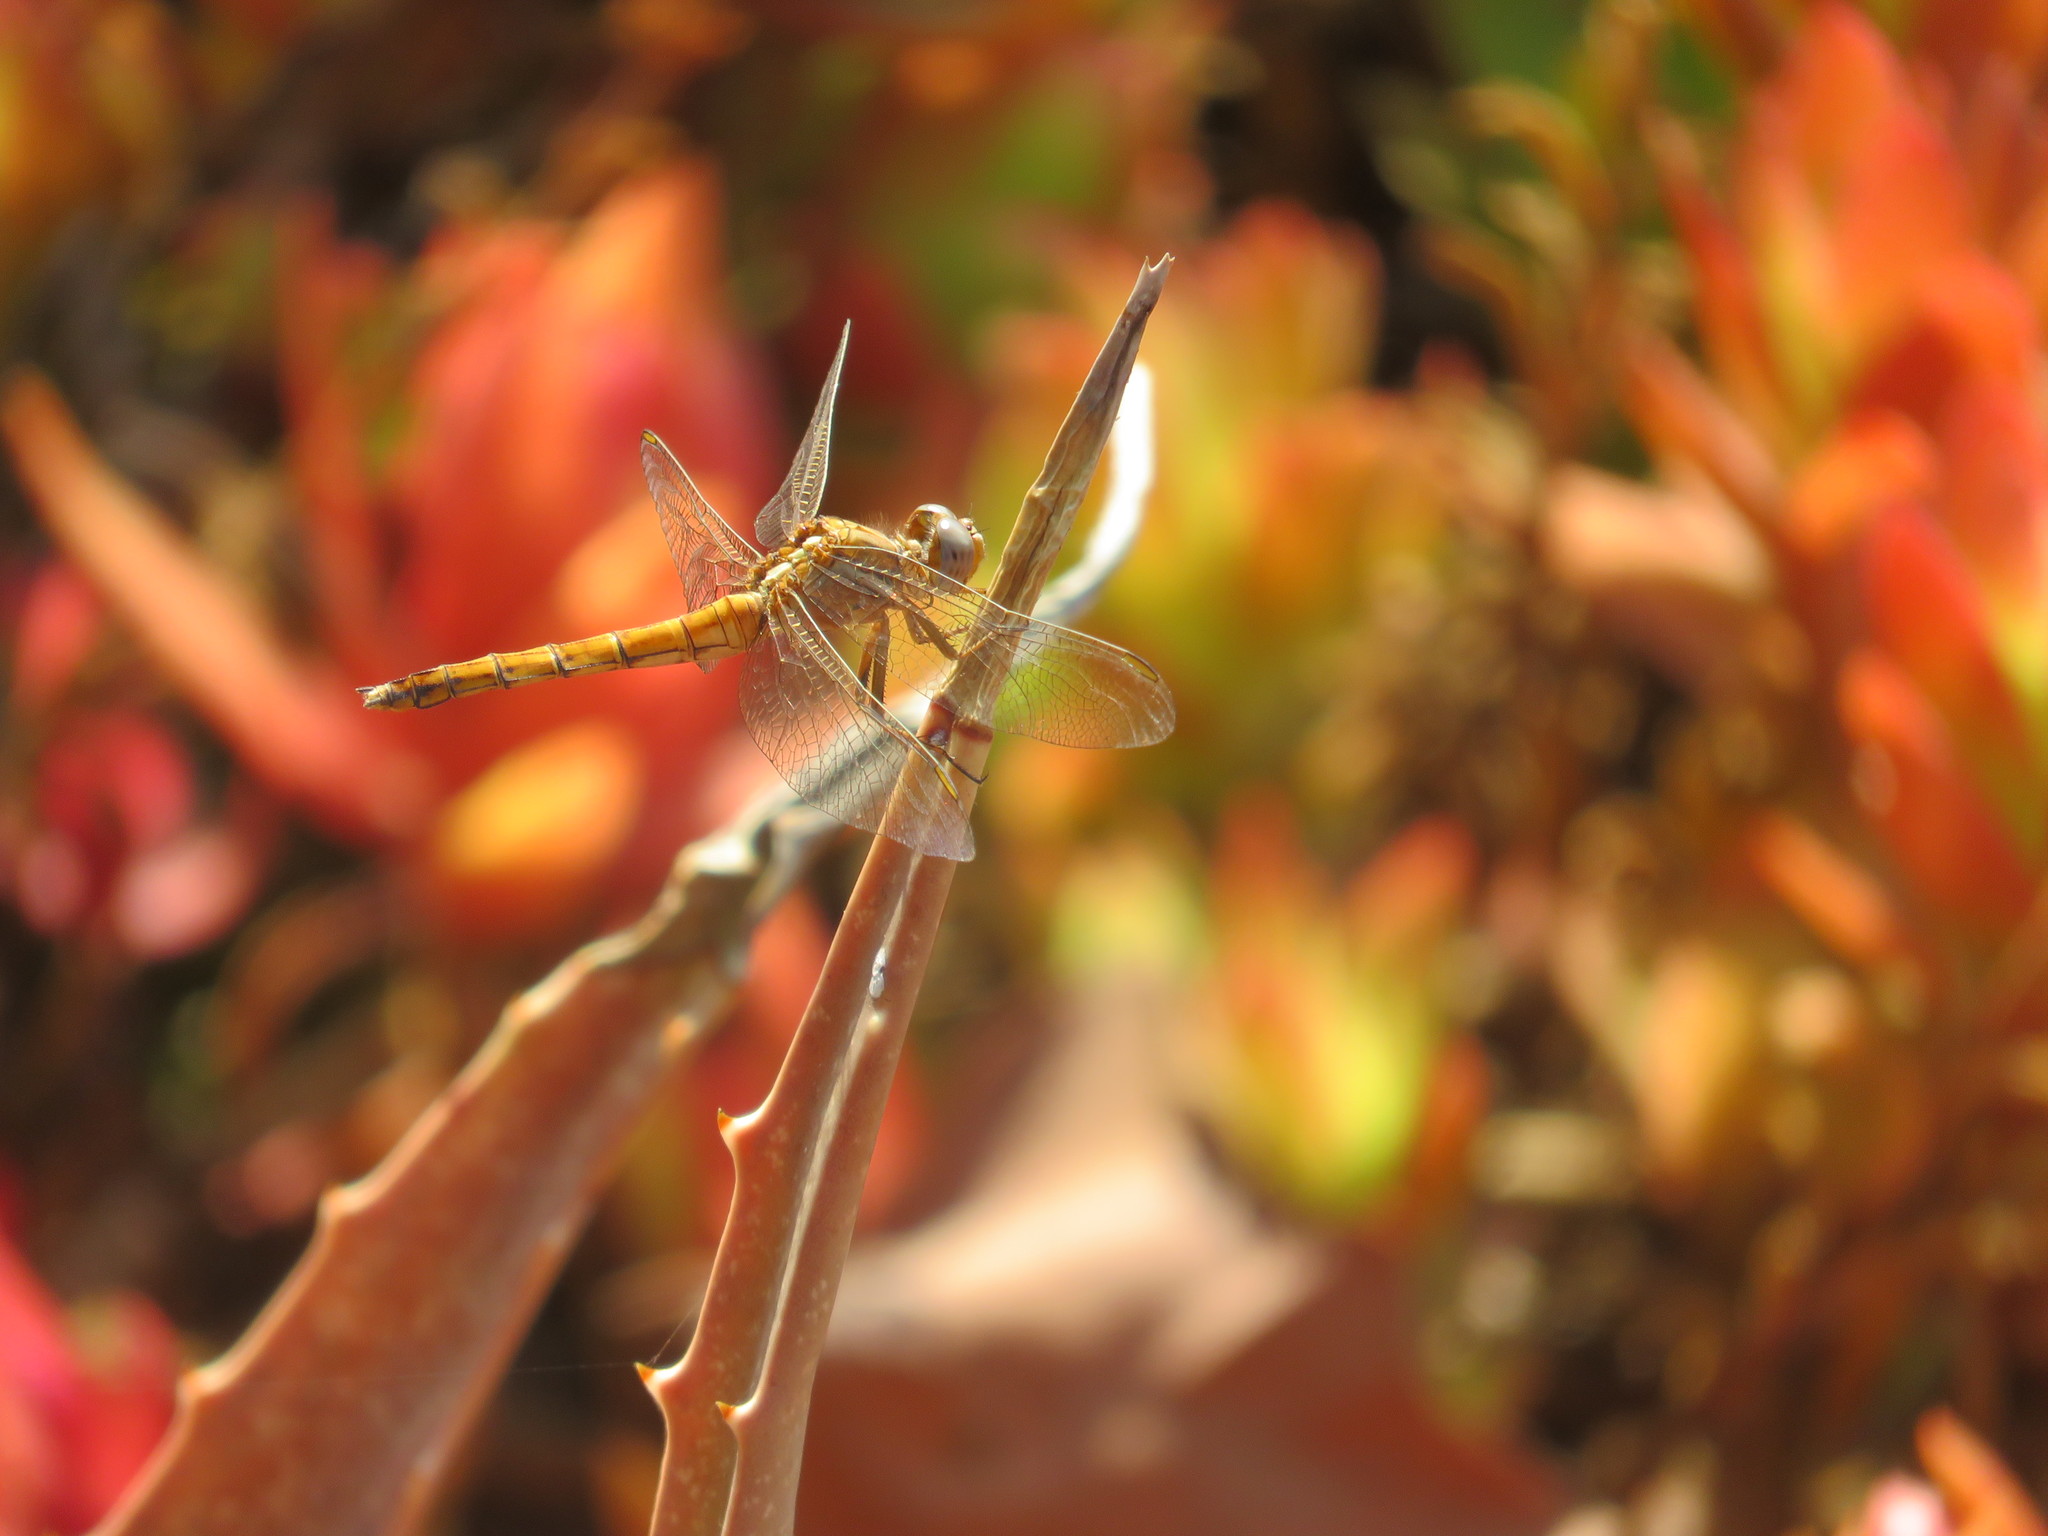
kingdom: Animalia
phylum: Arthropoda
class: Insecta
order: Odonata
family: Libellulidae
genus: Orthetrum
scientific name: Orthetrum chrysostigma
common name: Epaulet skimmer
